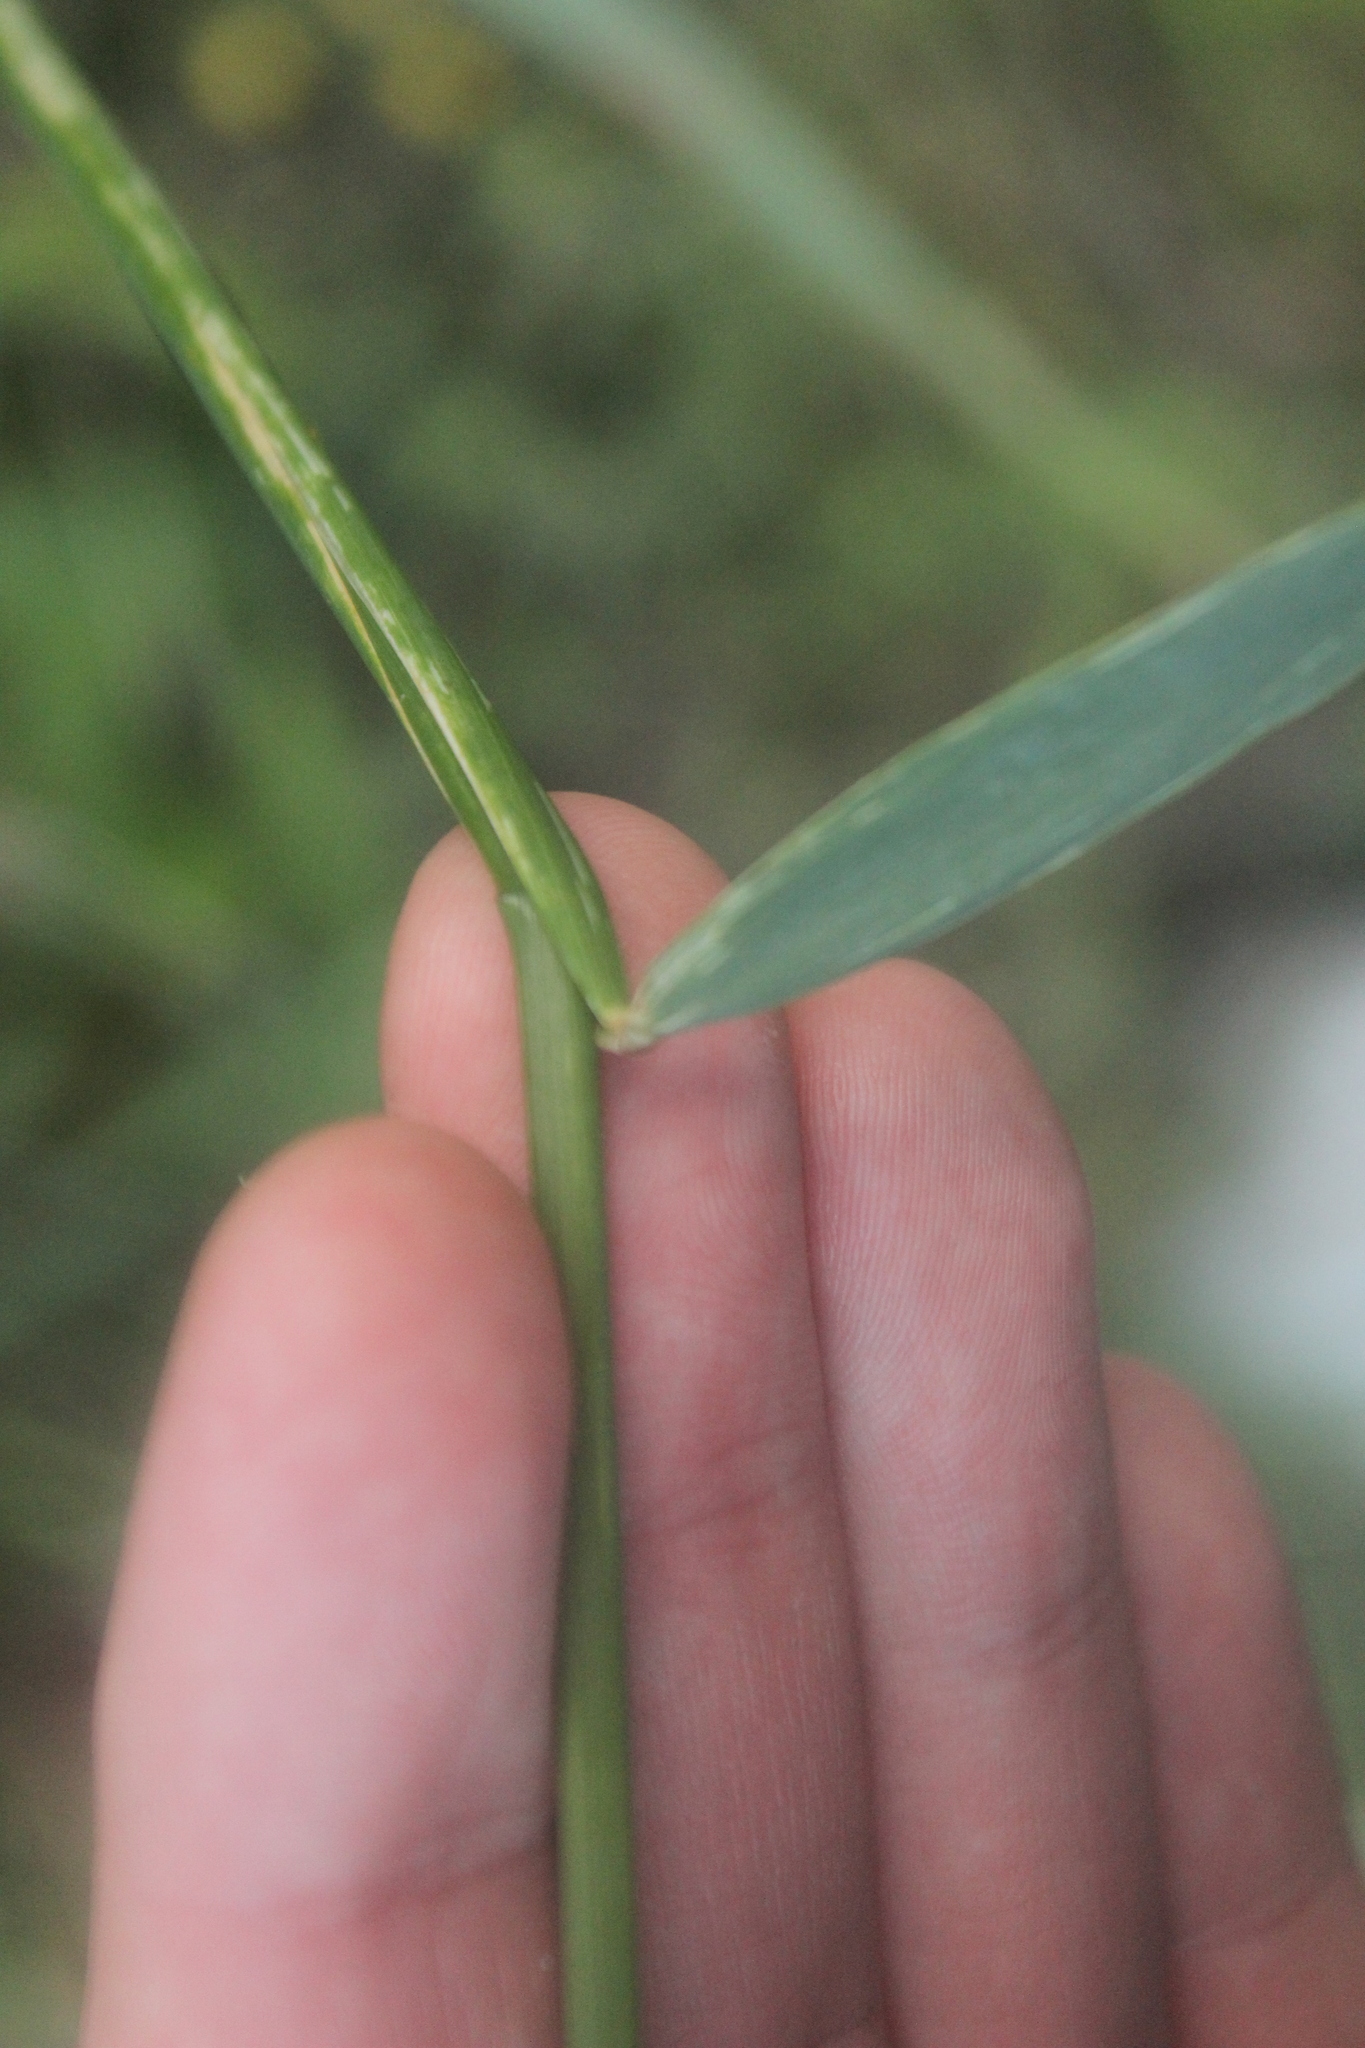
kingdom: Plantae
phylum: Tracheophyta
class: Liliopsida
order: Poales
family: Poaceae
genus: Arrhenatherum
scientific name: Arrhenatherum elatius
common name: Tall oatgrass
